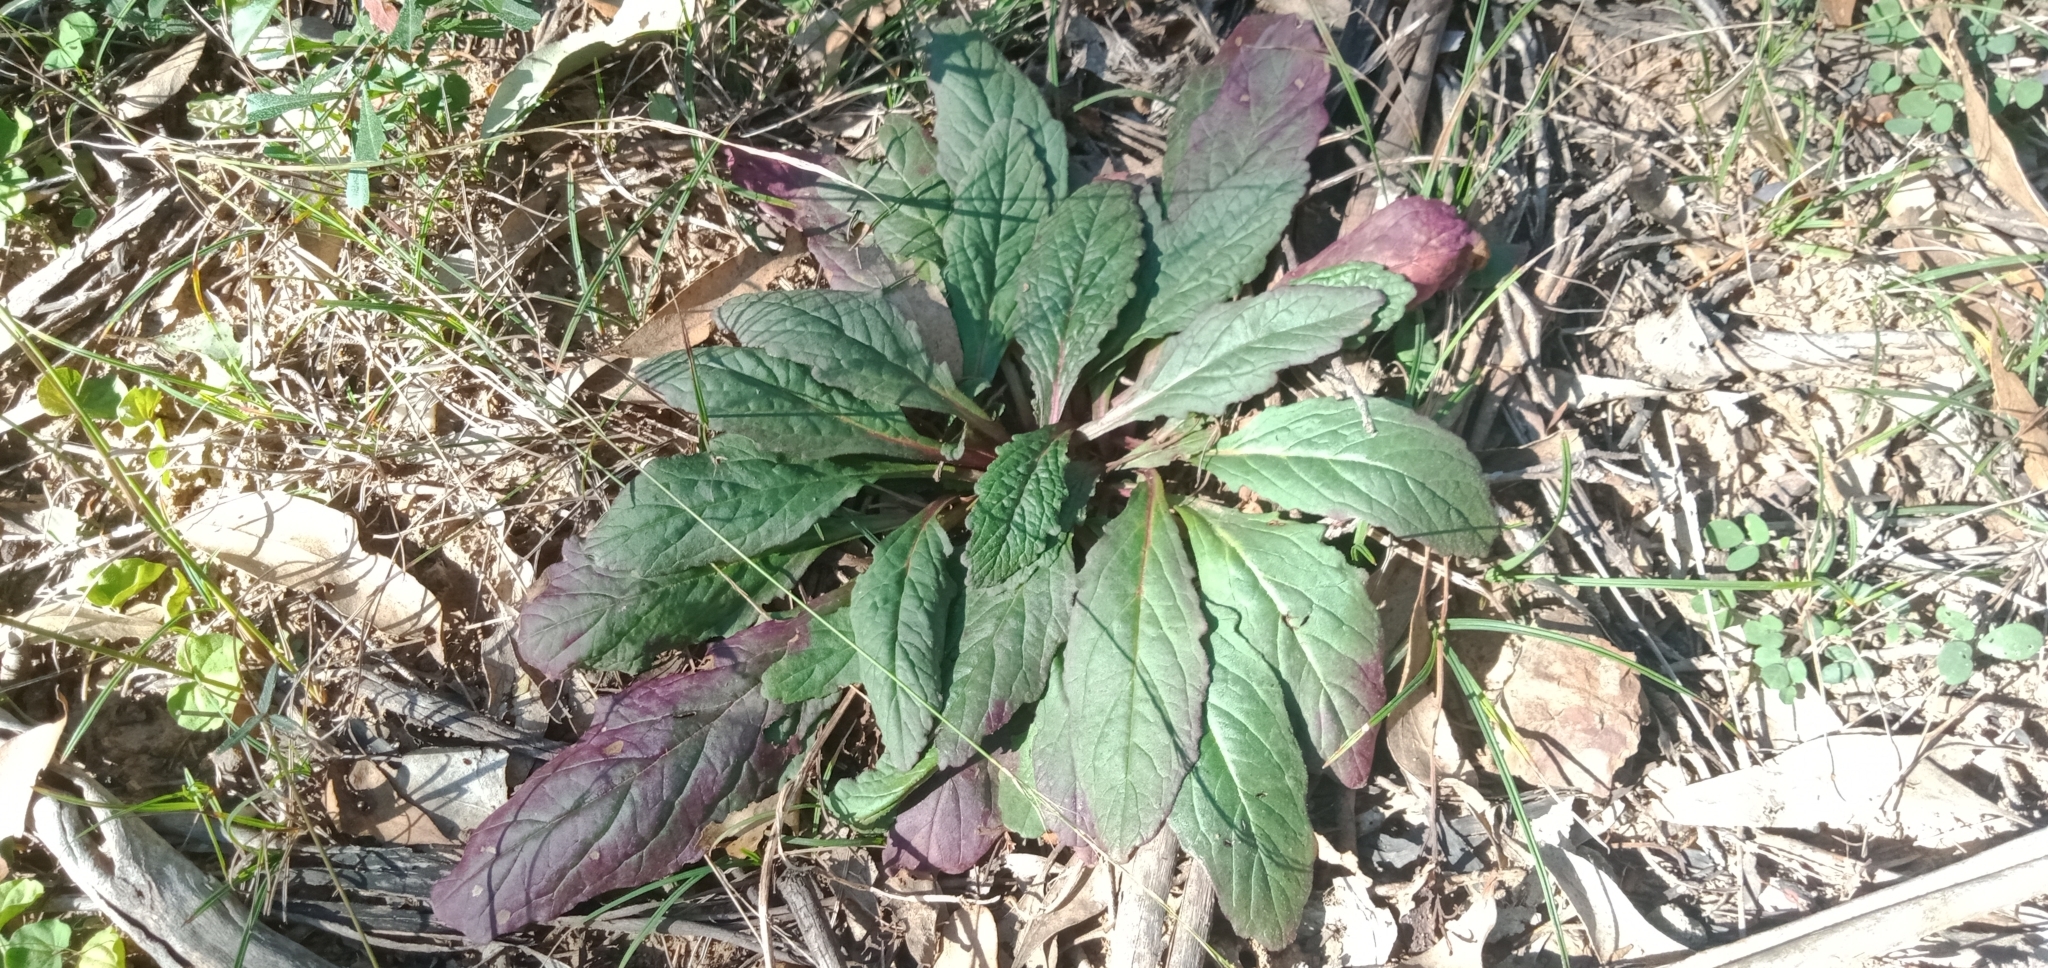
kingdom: Plantae
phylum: Tracheophyta
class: Magnoliopsida
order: Lamiales
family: Lamiaceae
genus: Ajuga
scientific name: Ajuga australis
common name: Australian bugle
